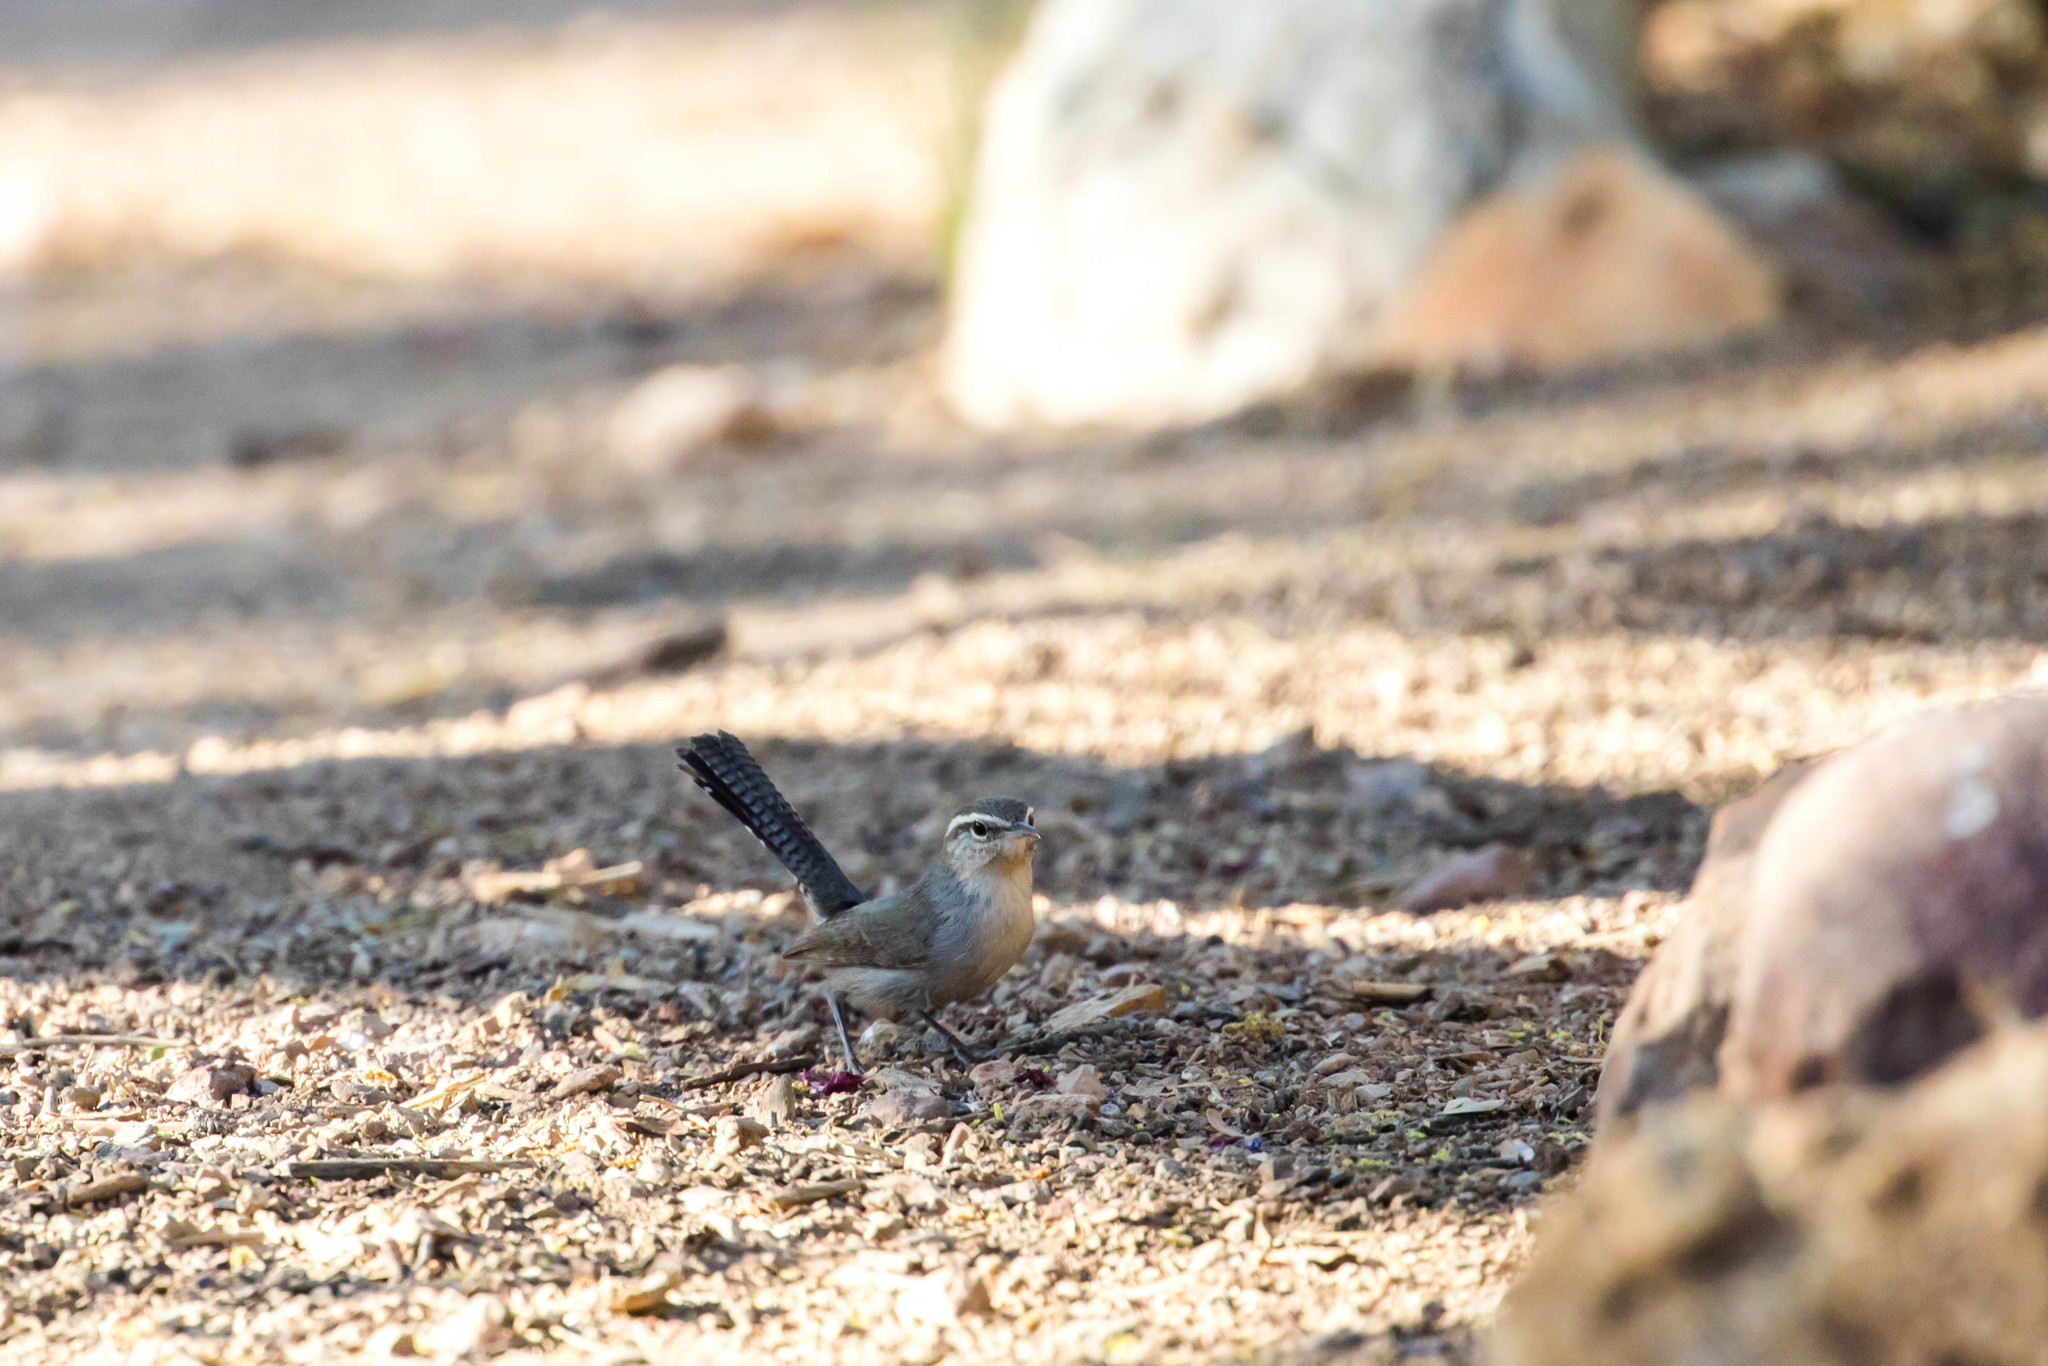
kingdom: Animalia
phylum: Chordata
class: Aves
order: Passeriformes
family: Troglodytidae
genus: Thryomanes
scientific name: Thryomanes bewickii
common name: Bewick's wren
